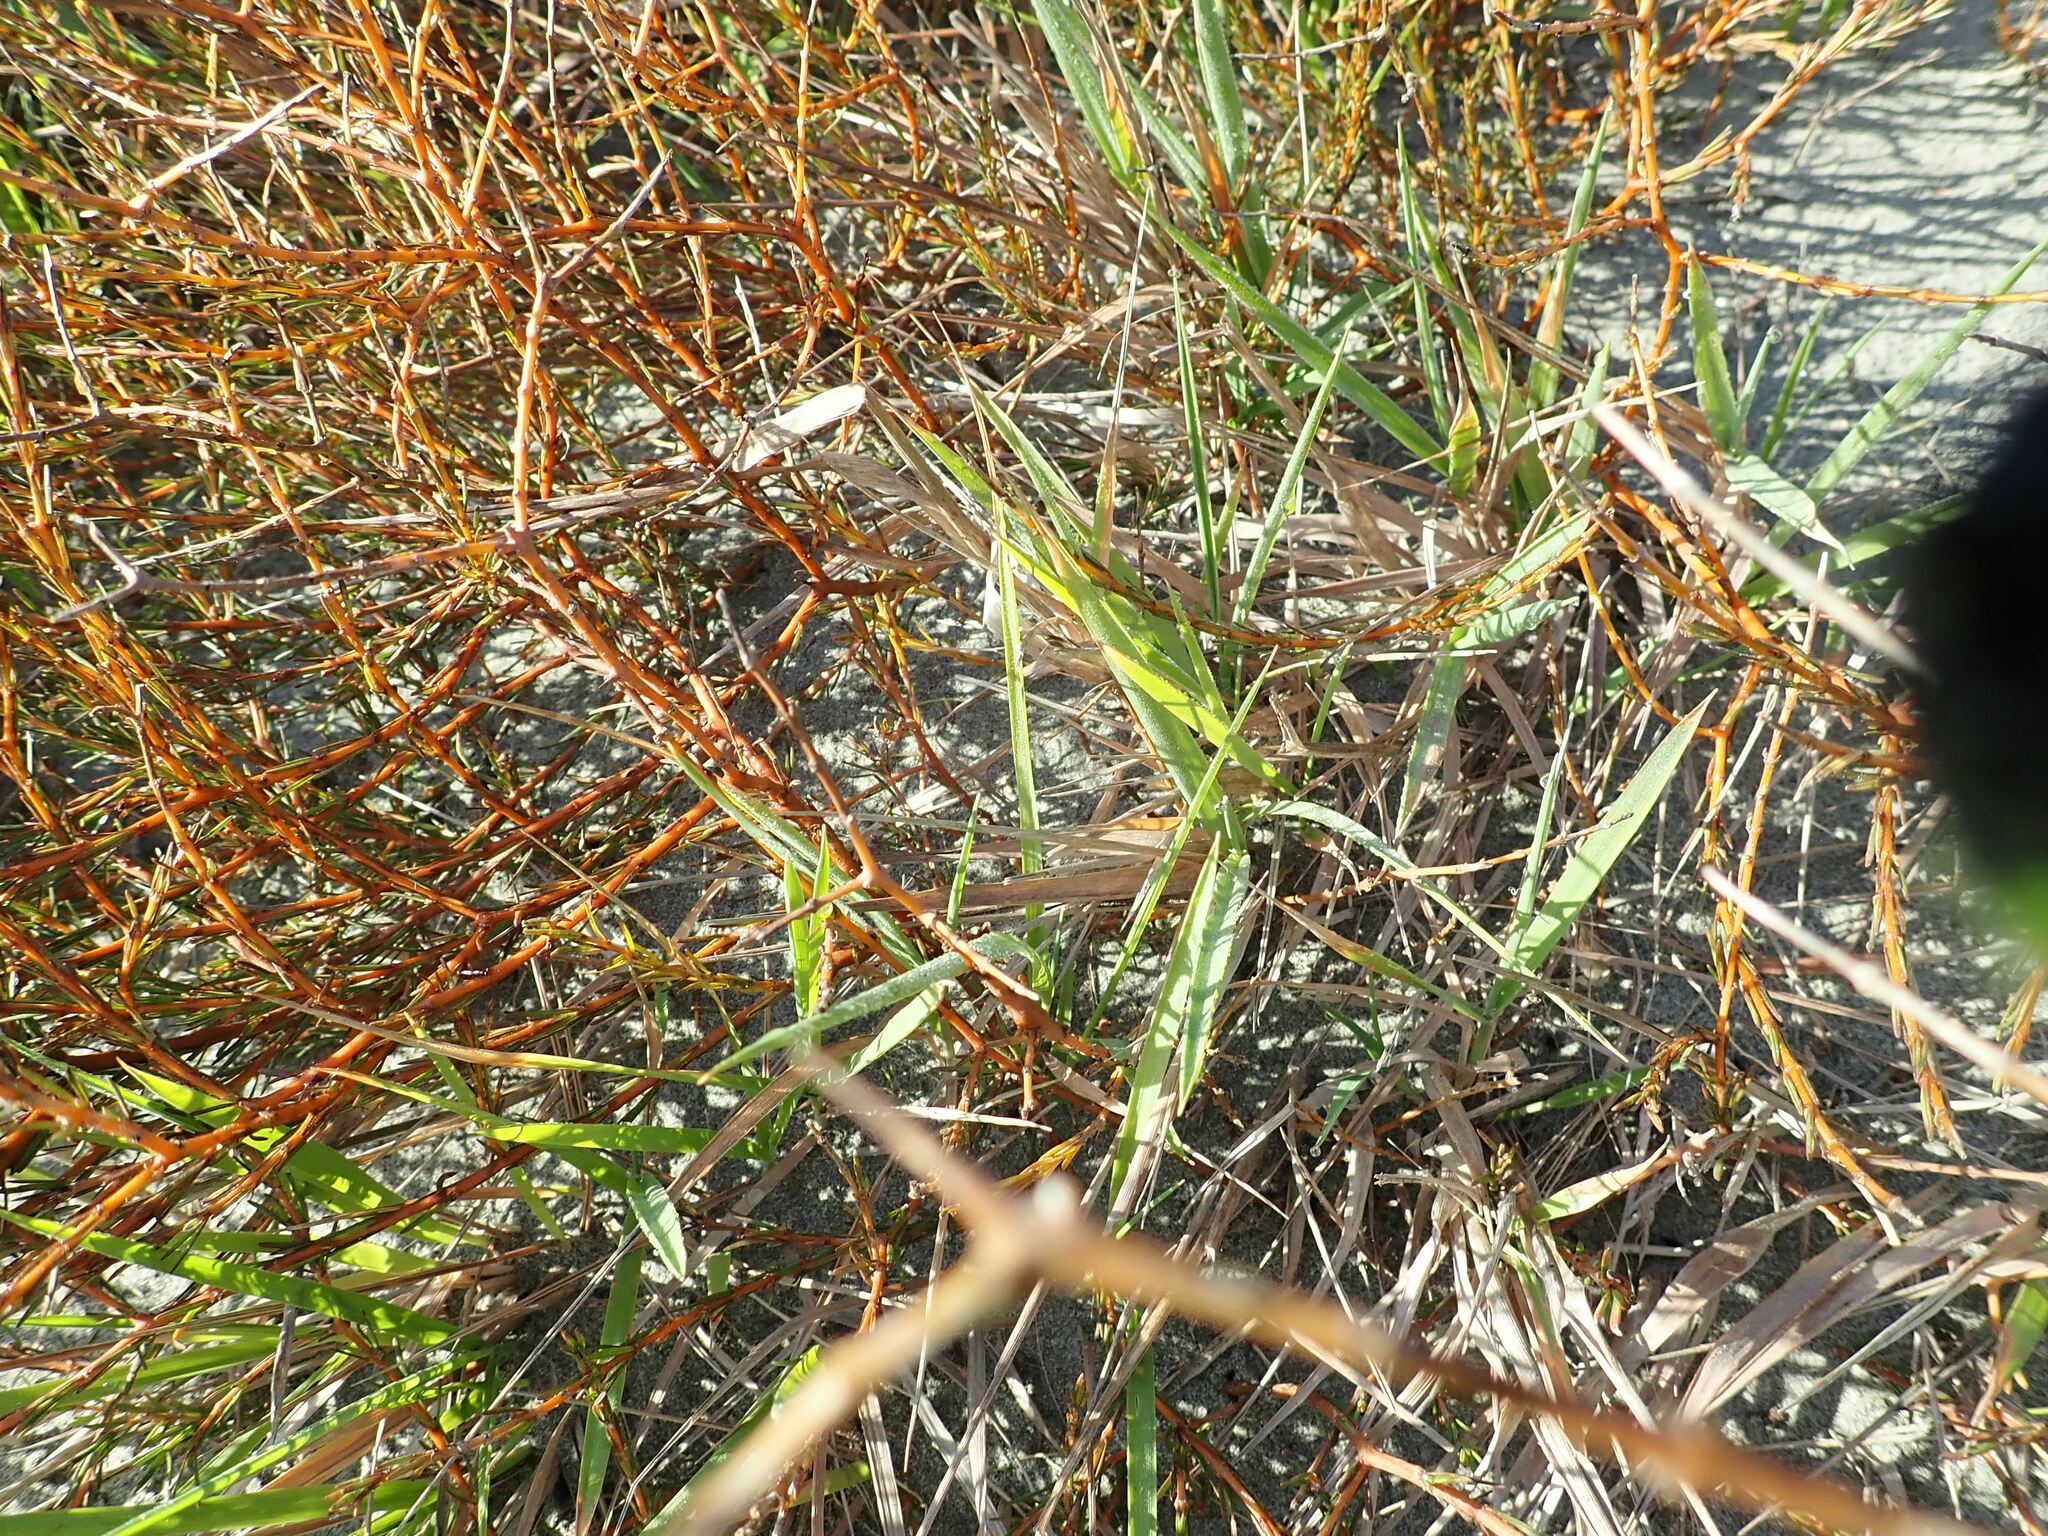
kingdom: Plantae
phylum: Tracheophyta
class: Magnoliopsida
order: Gentianales
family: Rubiaceae
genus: Coprosma
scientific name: Coprosma acerosa
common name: Sand coprosma
